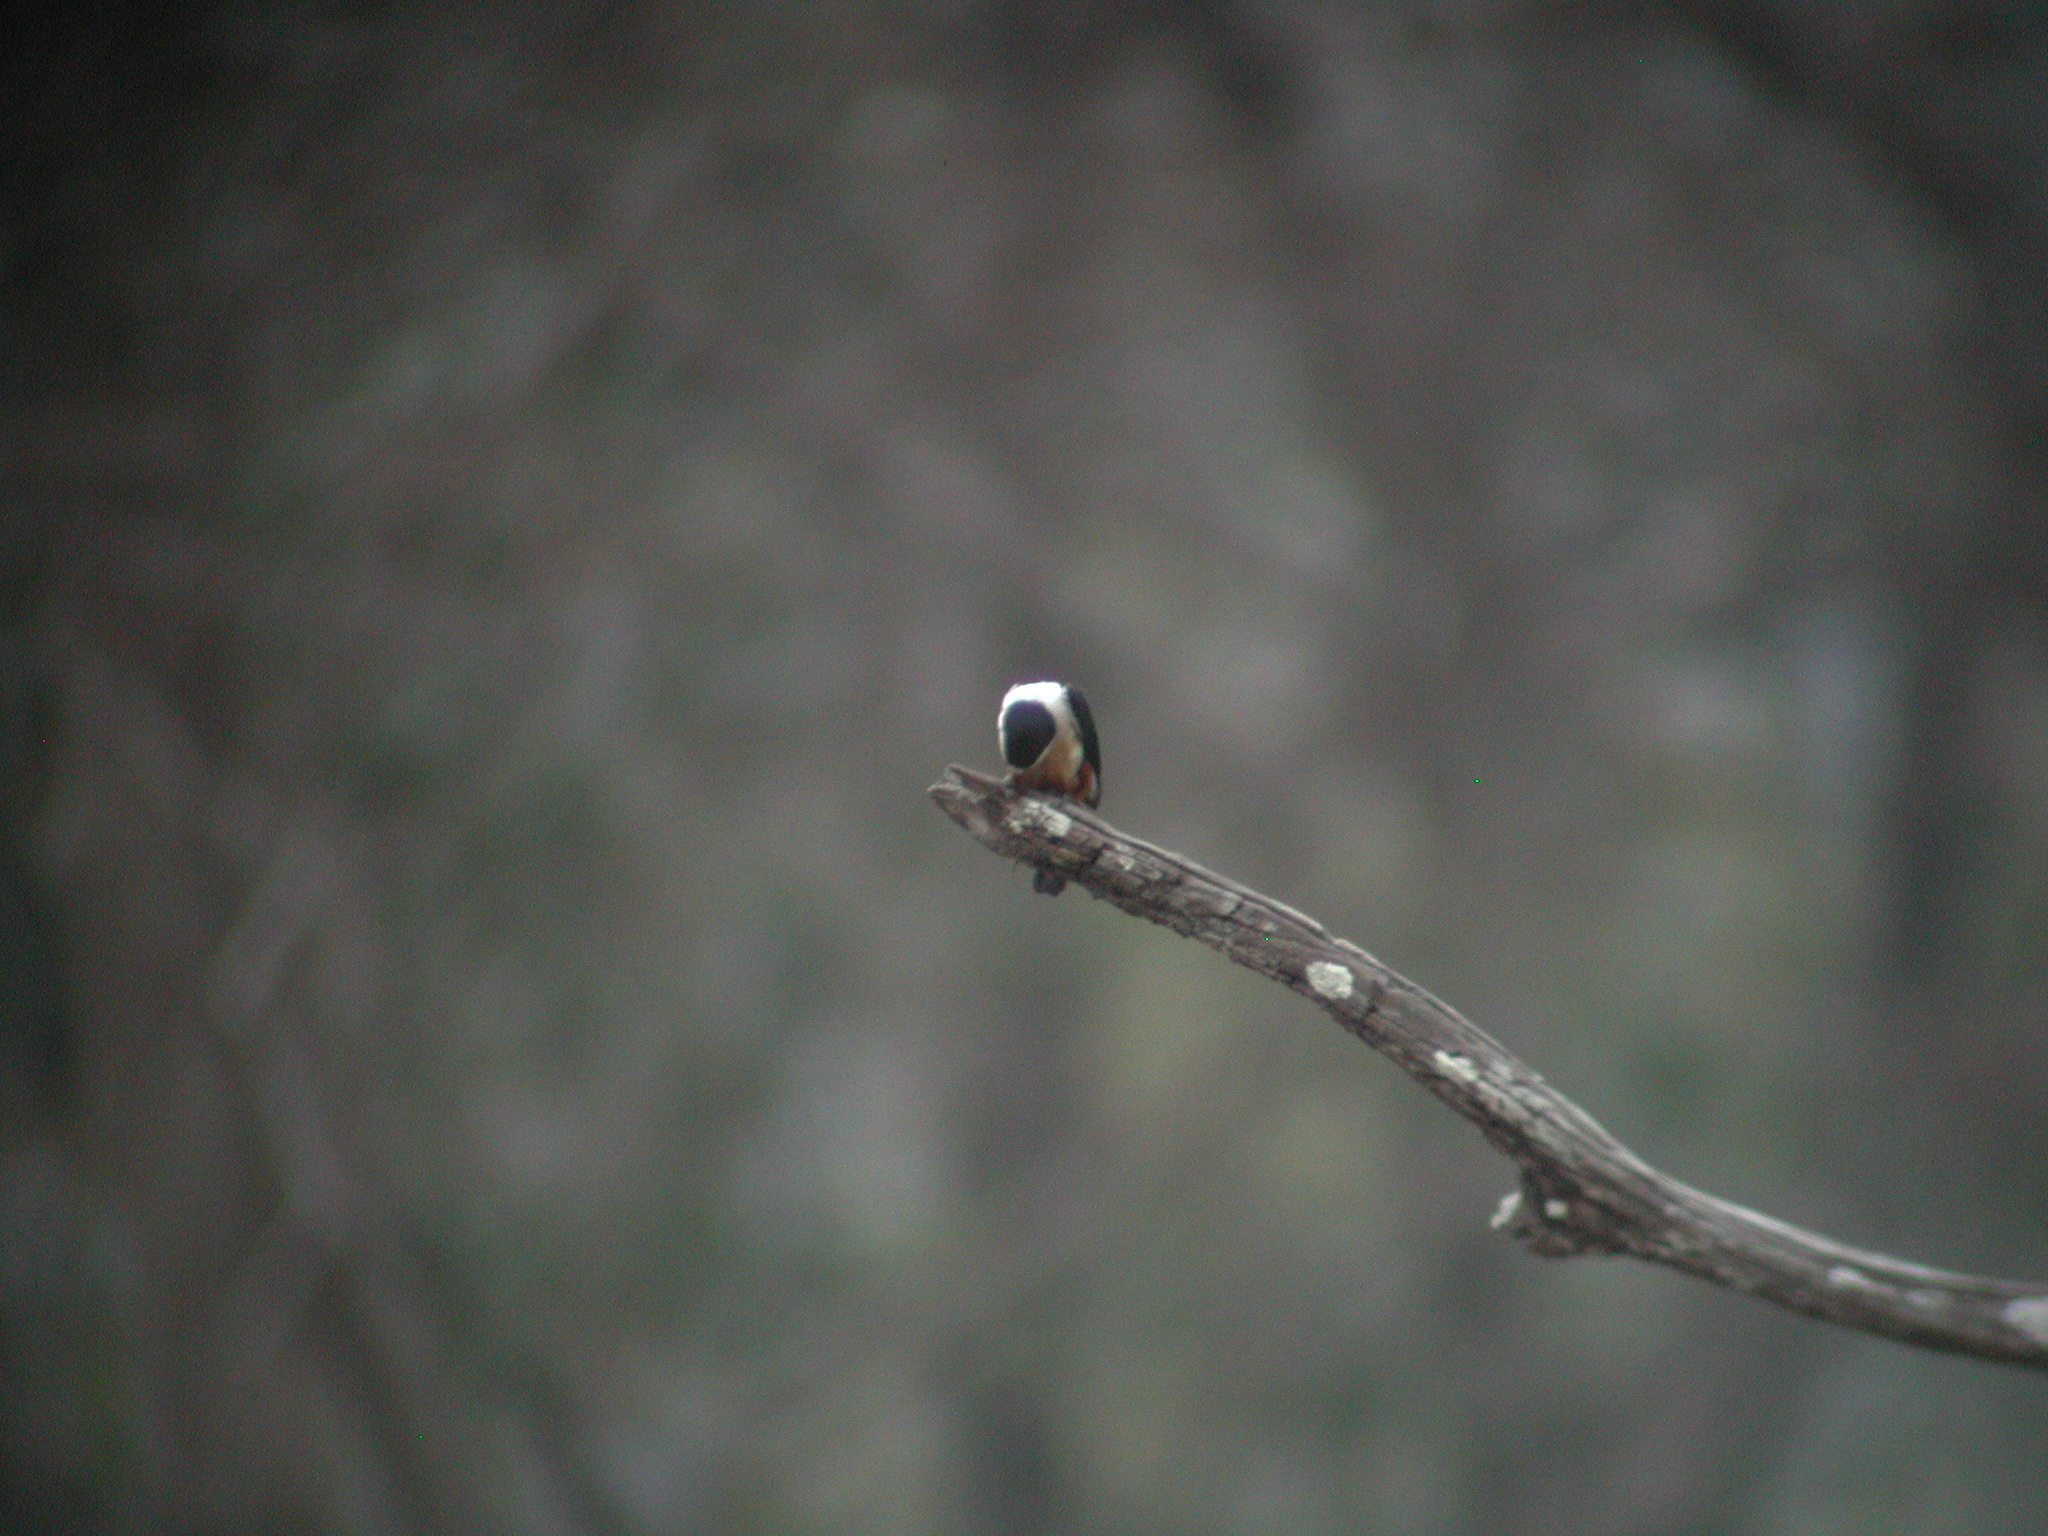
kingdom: Animalia
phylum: Chordata
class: Aves
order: Falconiformes
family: Falconidae
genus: Microhierax
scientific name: Microhierax caerulescens
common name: Collared falconet
